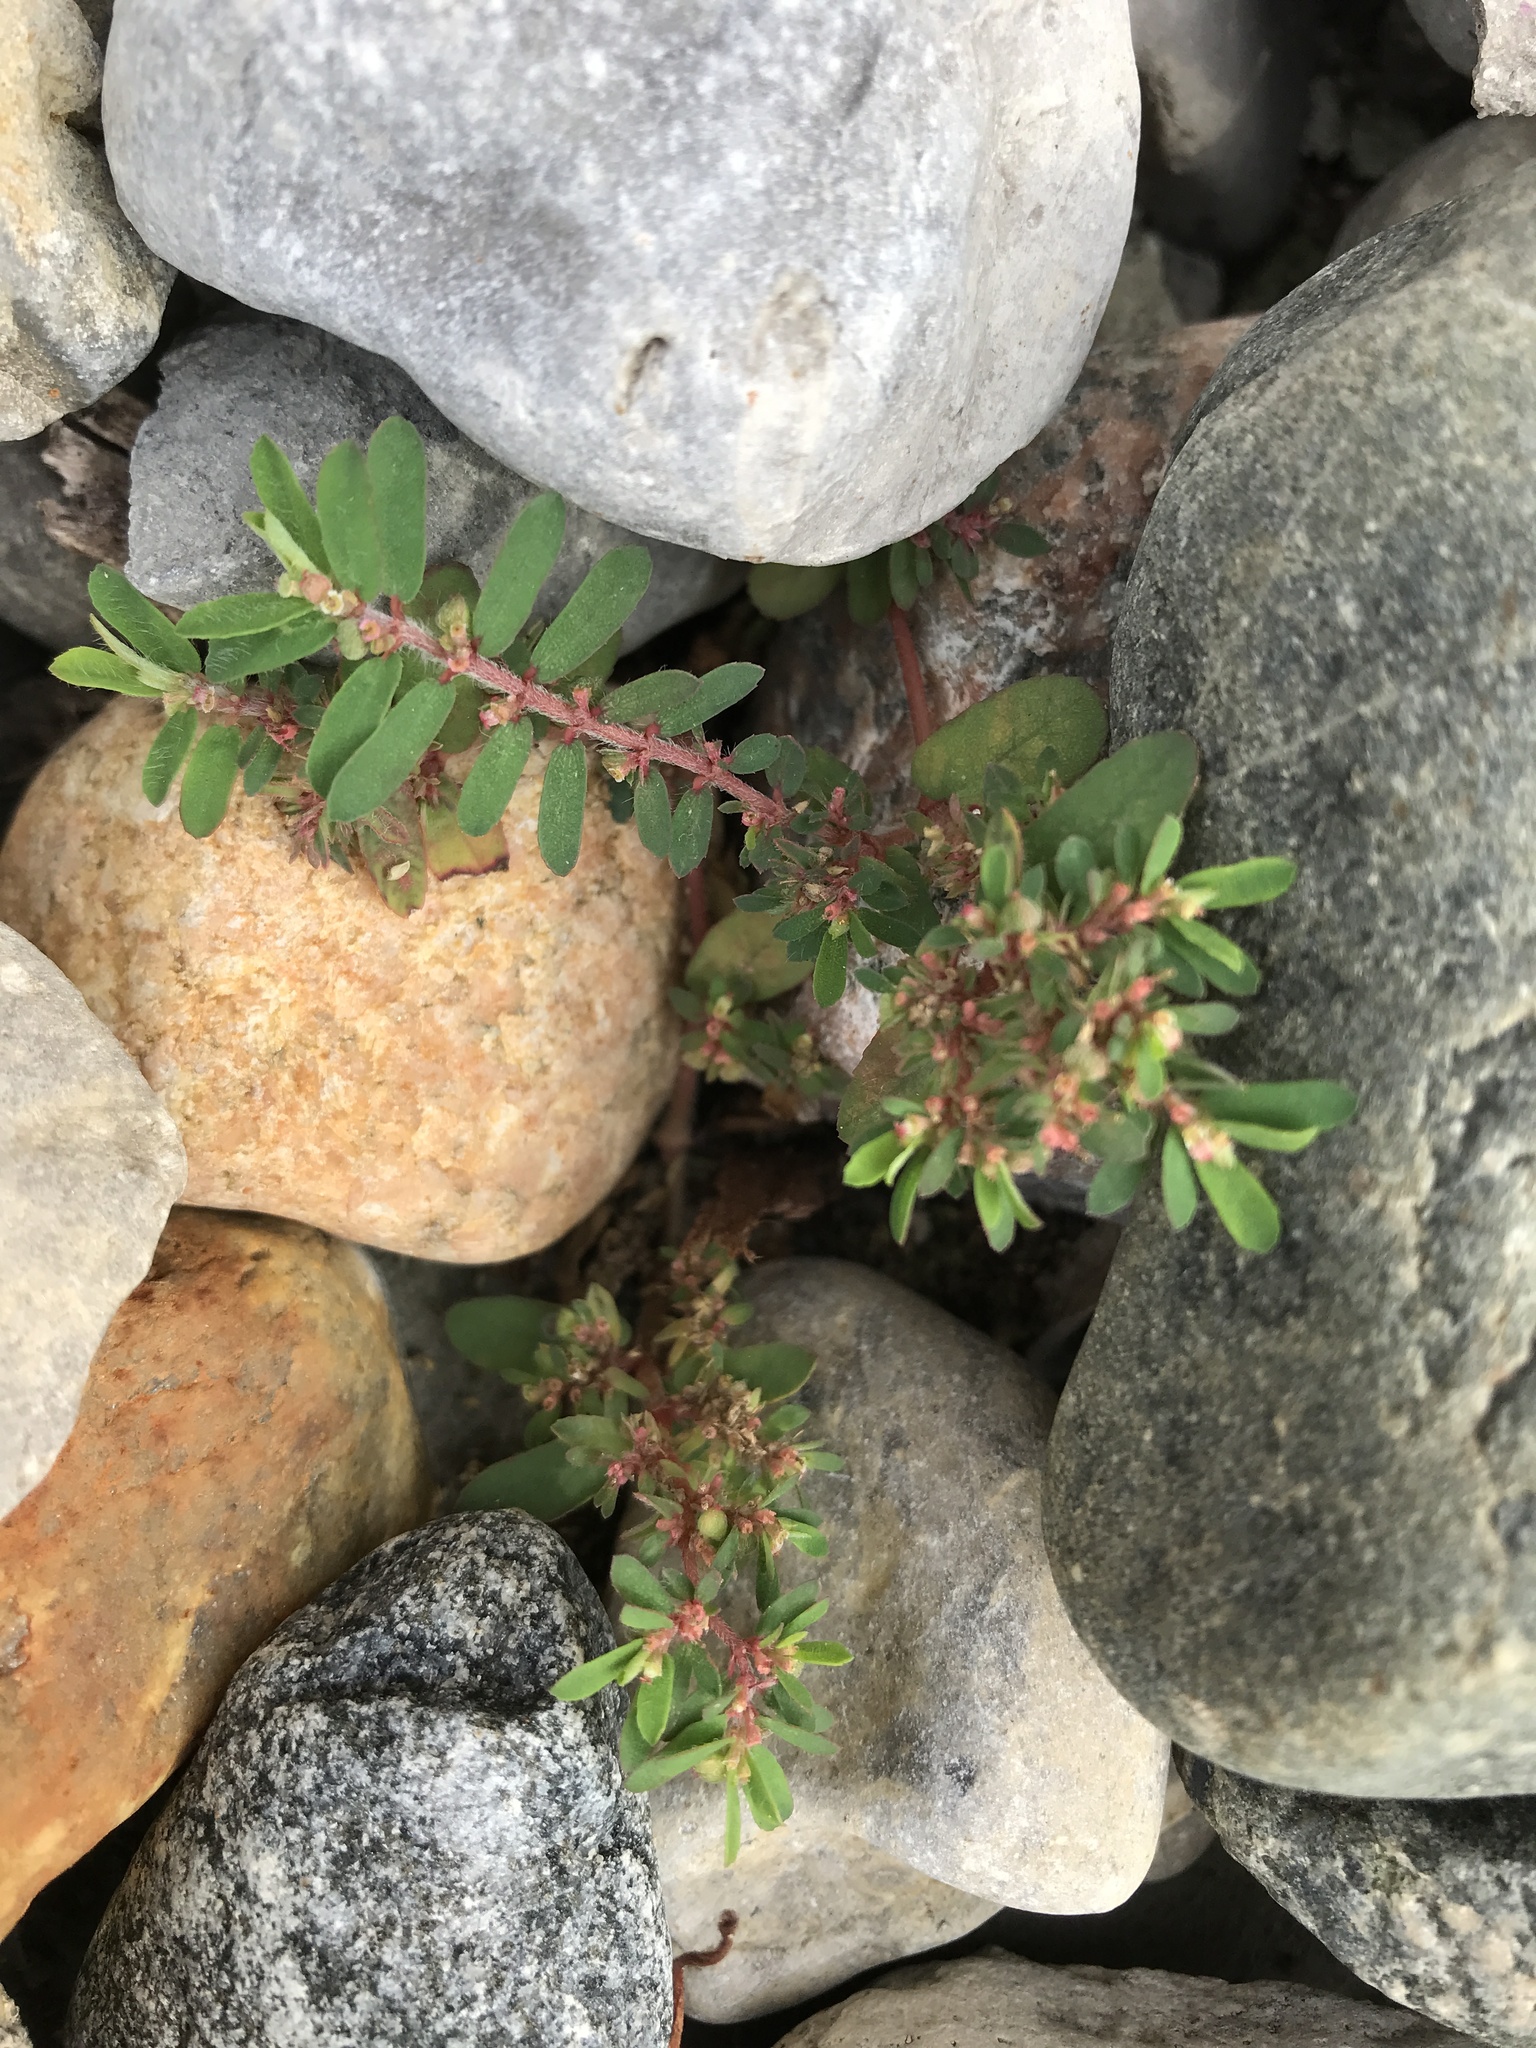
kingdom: Plantae
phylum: Tracheophyta
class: Magnoliopsida
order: Malpighiales
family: Euphorbiaceae
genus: Euphorbia
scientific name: Euphorbia maculata
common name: Spotted spurge
